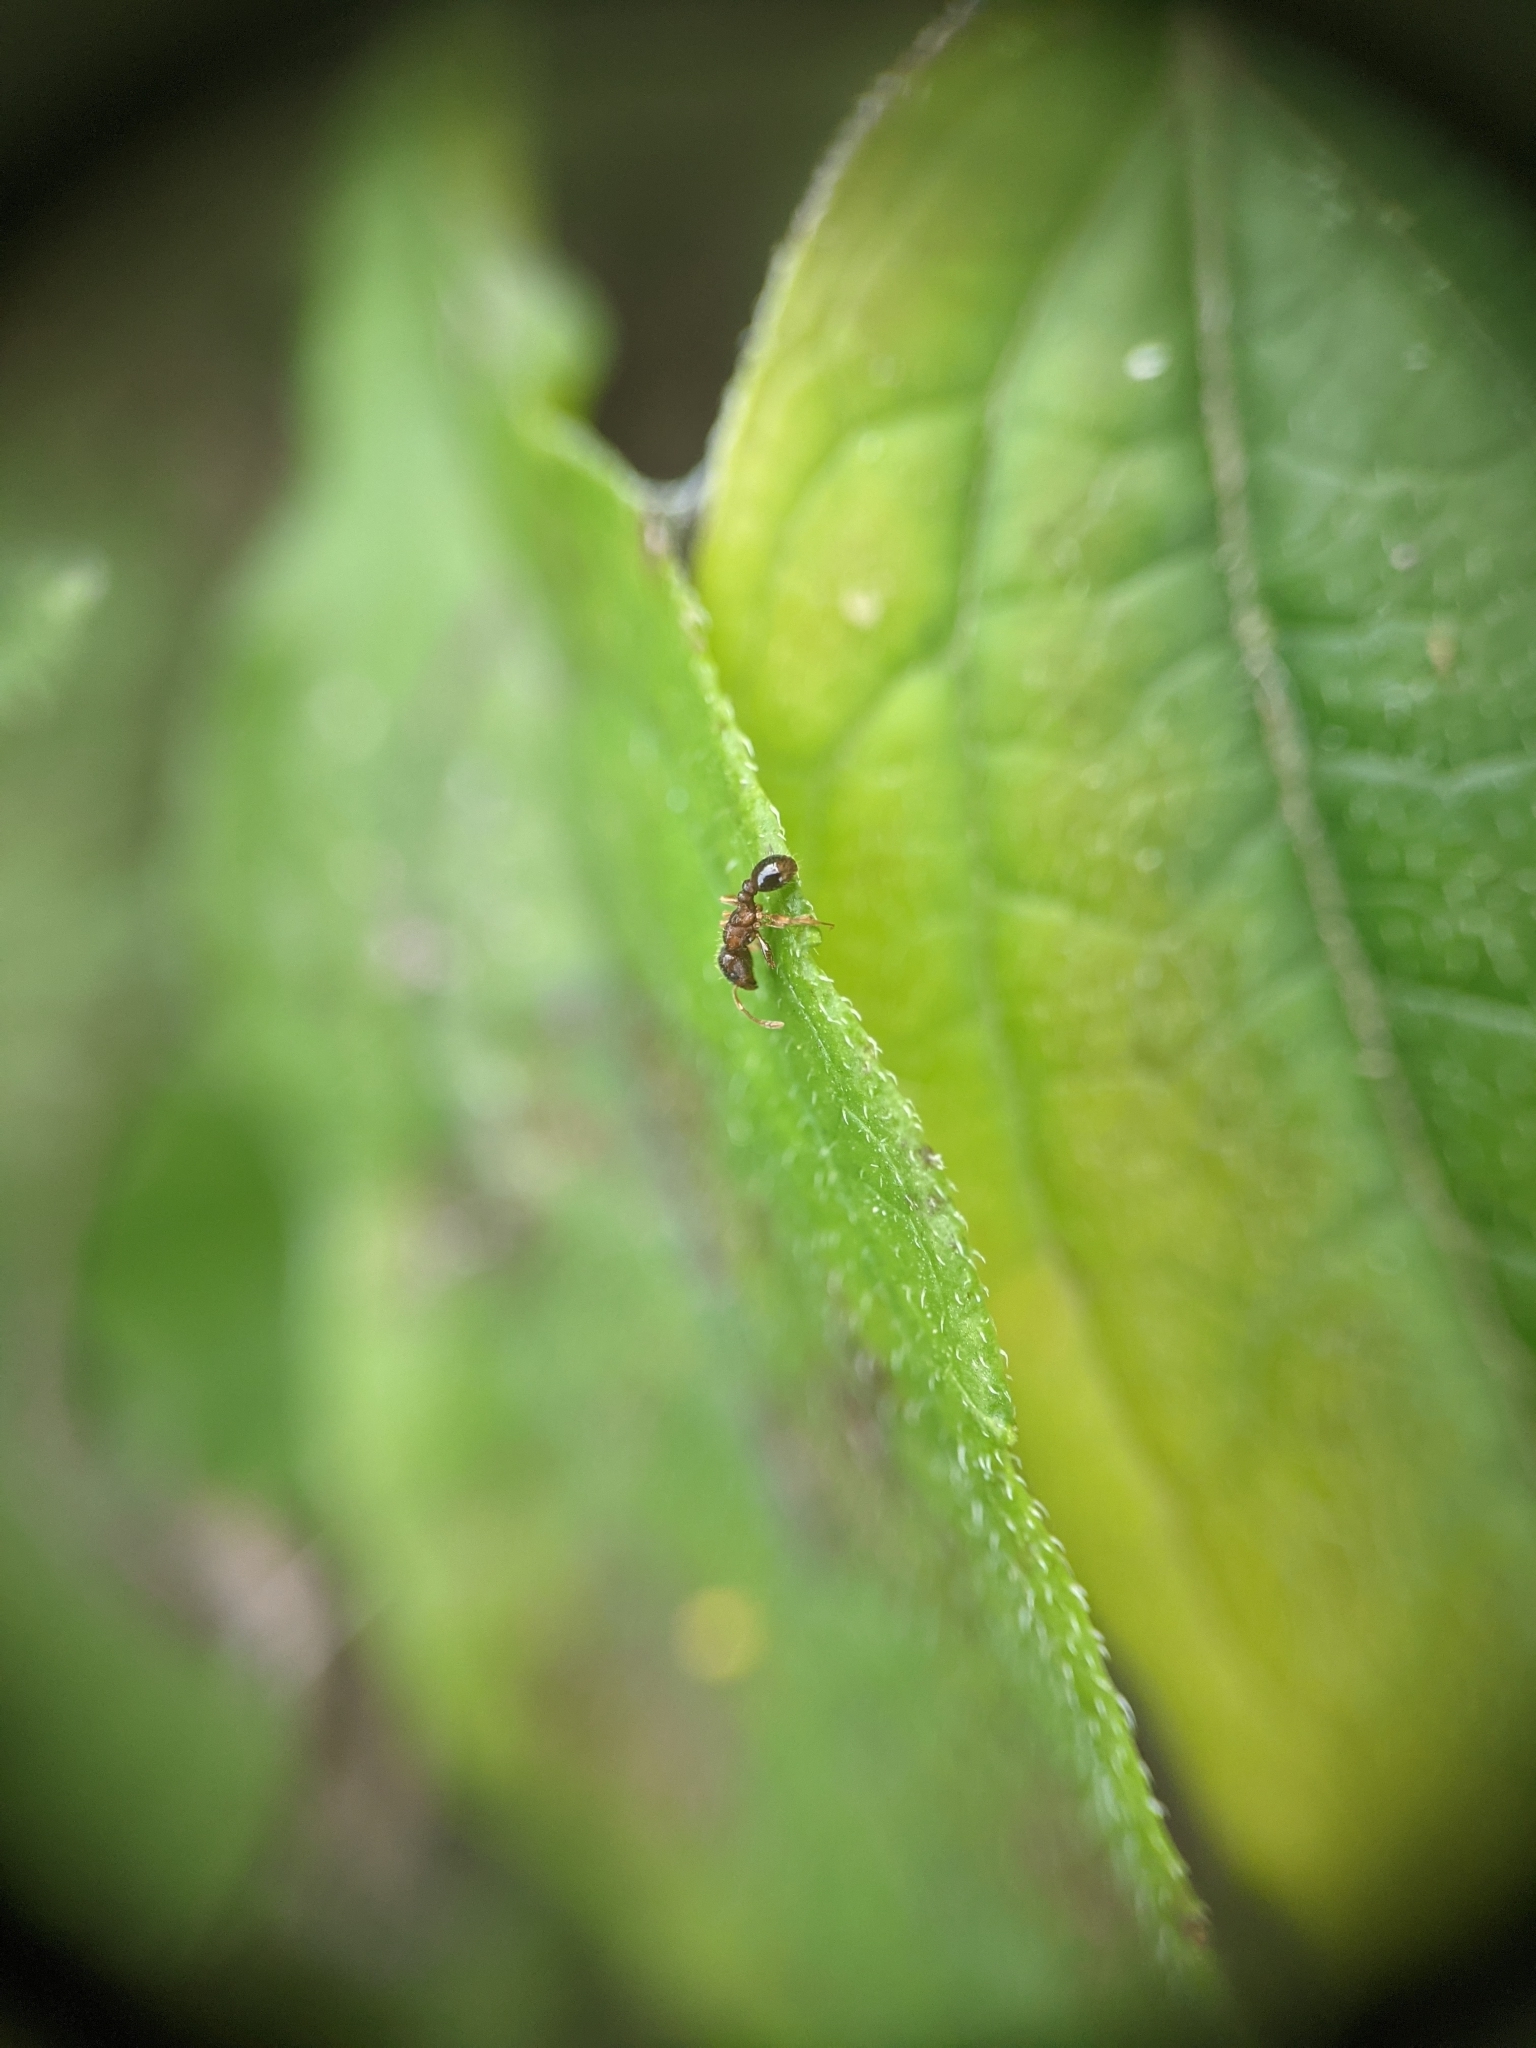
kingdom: Animalia
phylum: Arthropoda
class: Insecta
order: Hymenoptera
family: Formicidae
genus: Tetramorium
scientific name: Tetramorium immigrans
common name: Pavement ant
